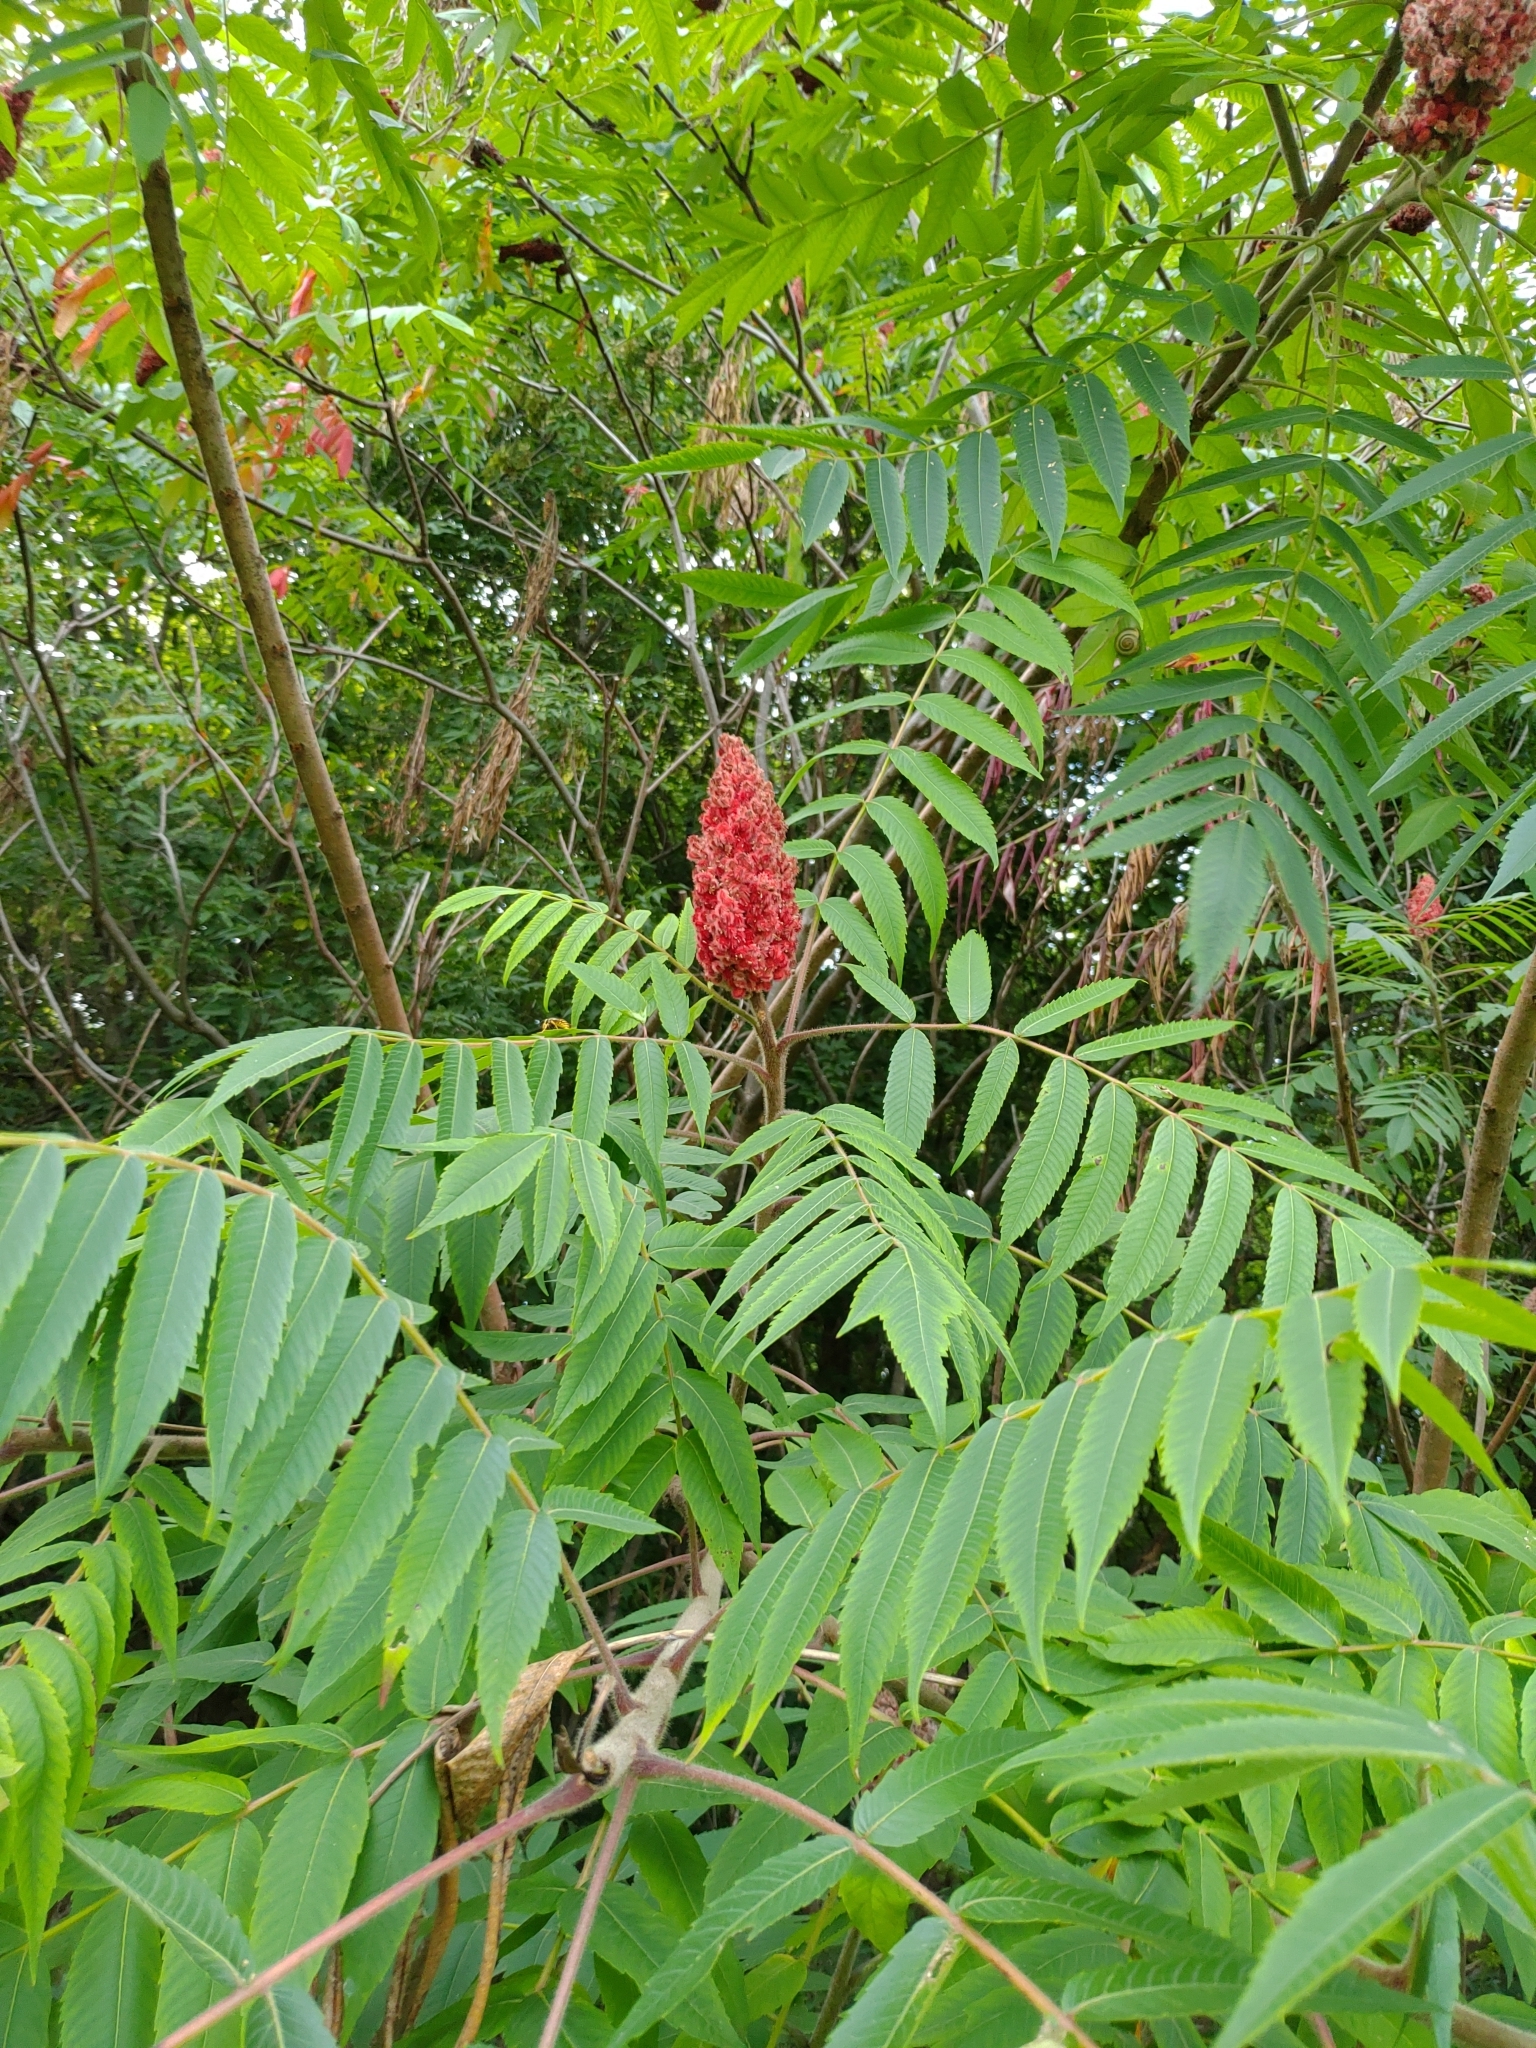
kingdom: Plantae
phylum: Tracheophyta
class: Magnoliopsida
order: Sapindales
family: Anacardiaceae
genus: Rhus
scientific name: Rhus typhina
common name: Staghorn sumac
